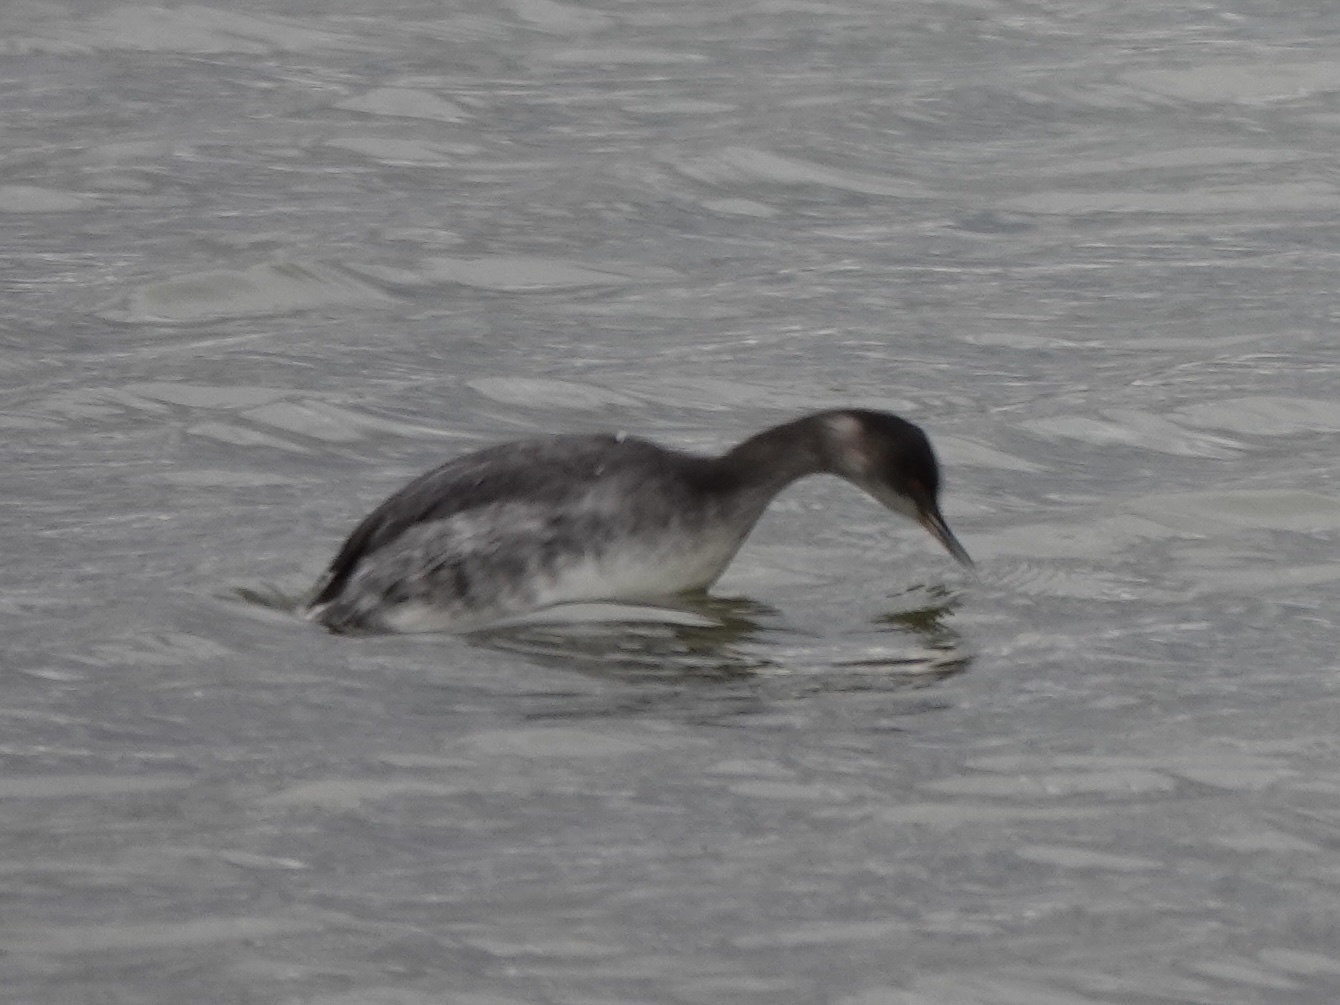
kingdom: Animalia
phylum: Chordata
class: Aves
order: Podicipediformes
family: Podicipedidae
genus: Podiceps
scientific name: Podiceps nigricollis
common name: Black-necked grebe
